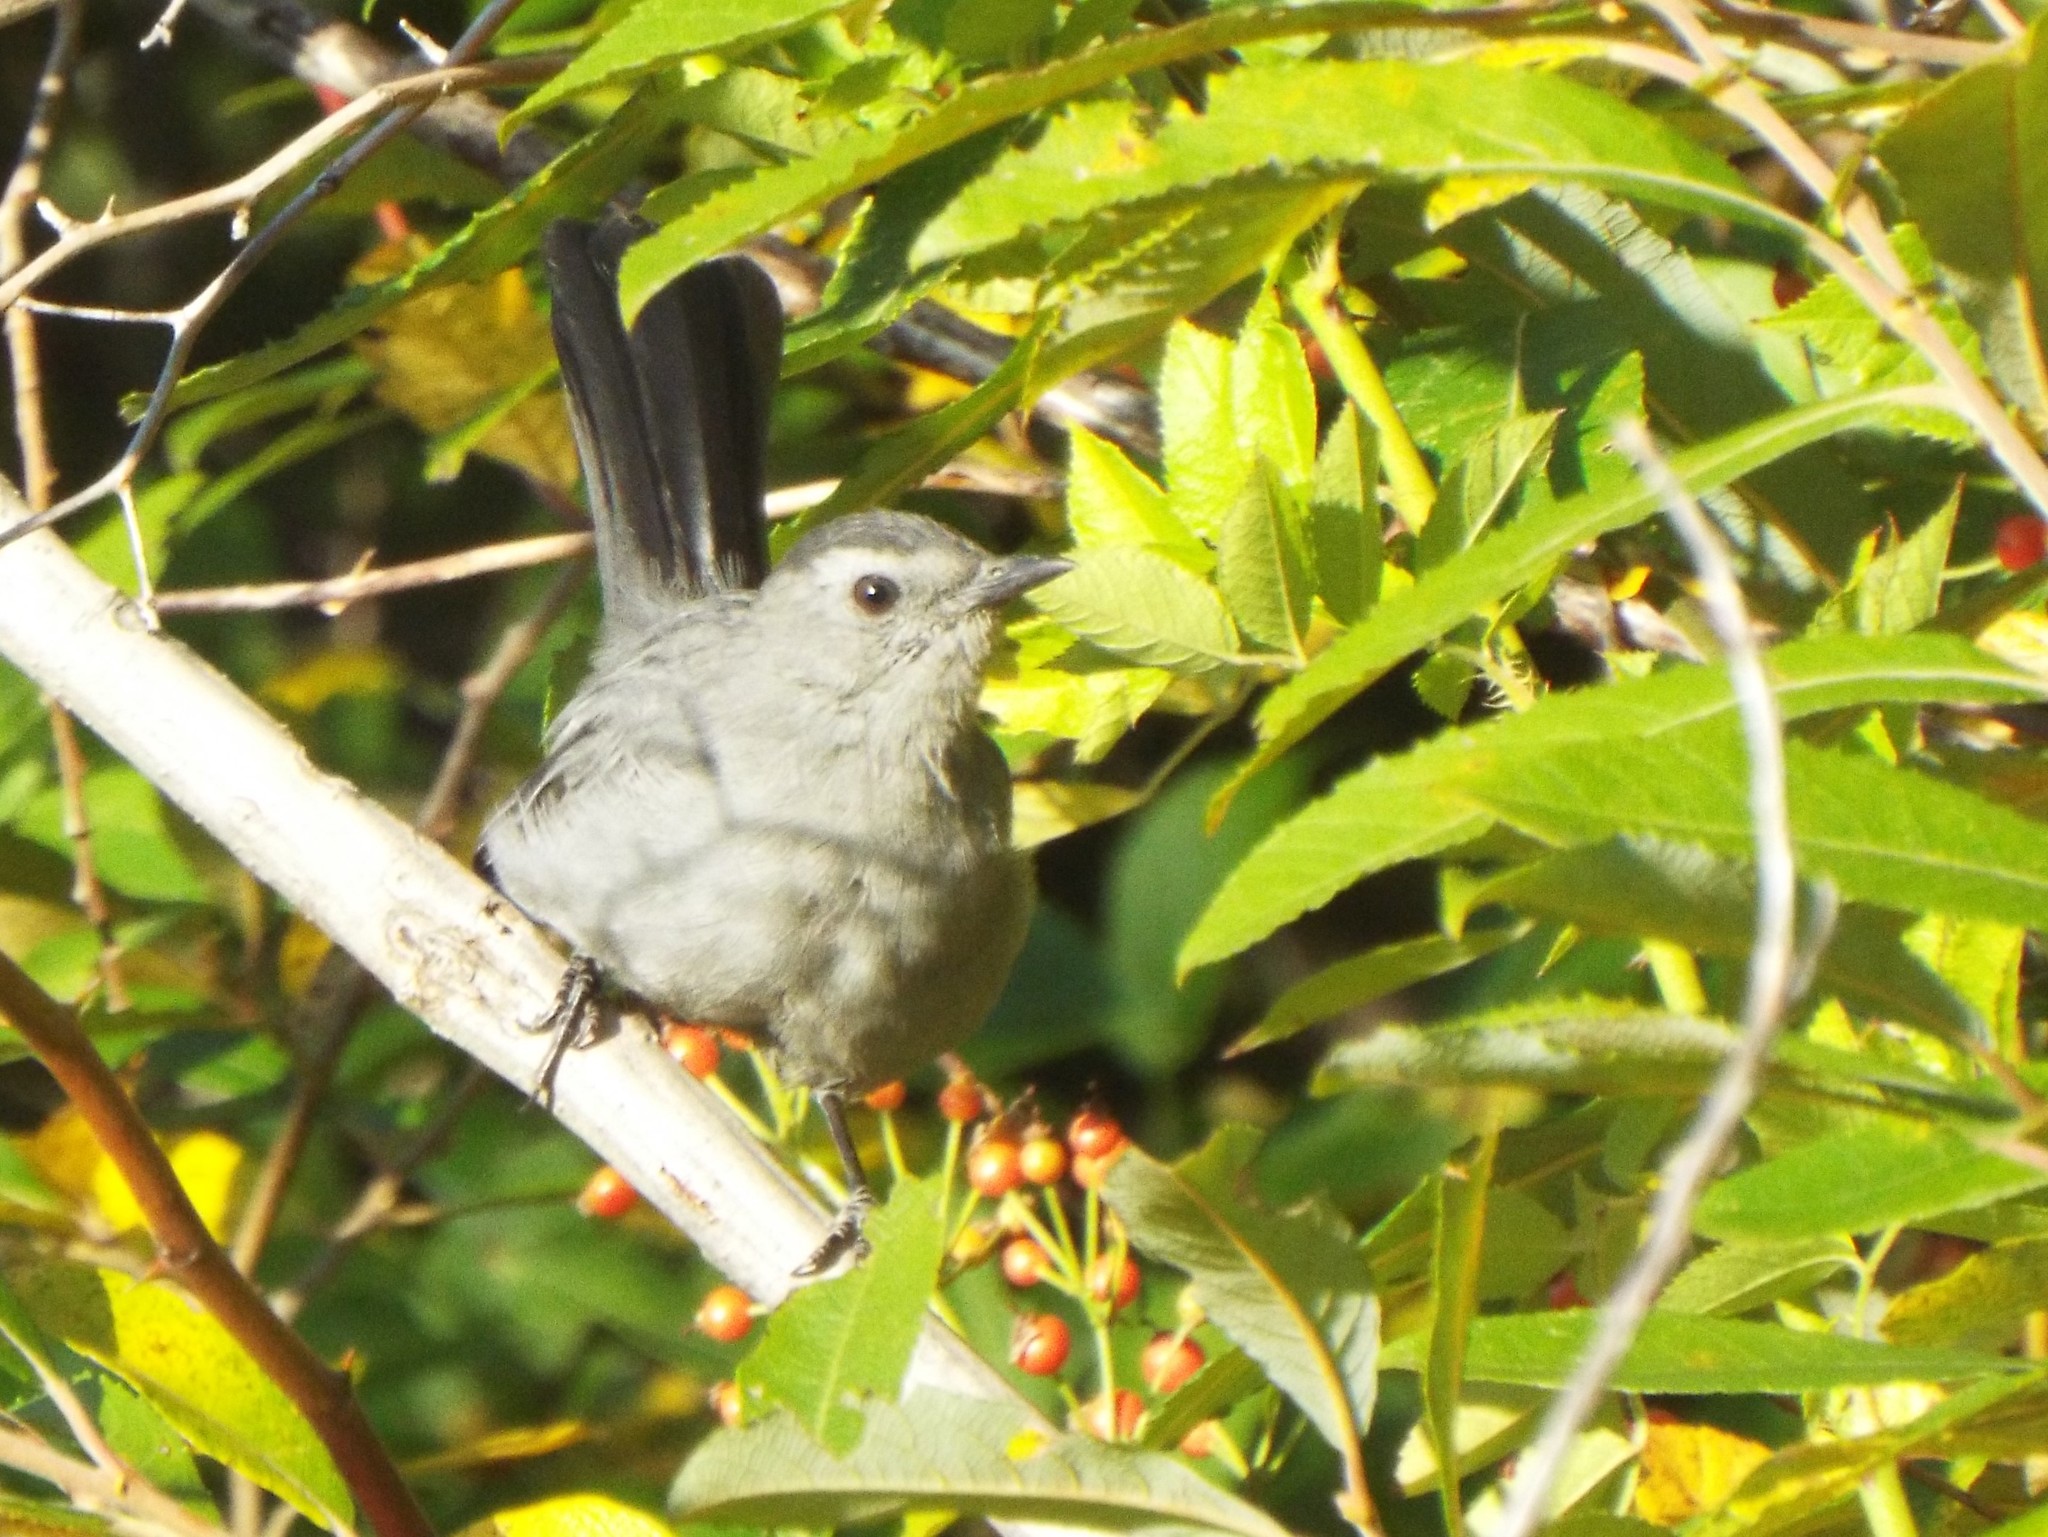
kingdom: Animalia
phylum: Chordata
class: Aves
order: Passeriformes
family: Mimidae
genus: Dumetella
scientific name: Dumetella carolinensis
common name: Gray catbird
